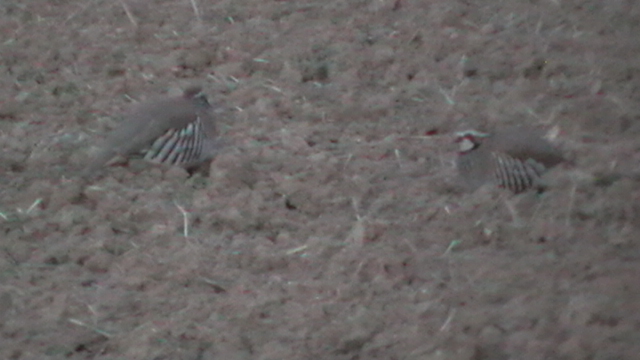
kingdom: Animalia
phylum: Chordata
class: Aves
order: Galliformes
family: Phasianidae
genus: Alectoris
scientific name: Alectoris rufa
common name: Red-legged partridge
